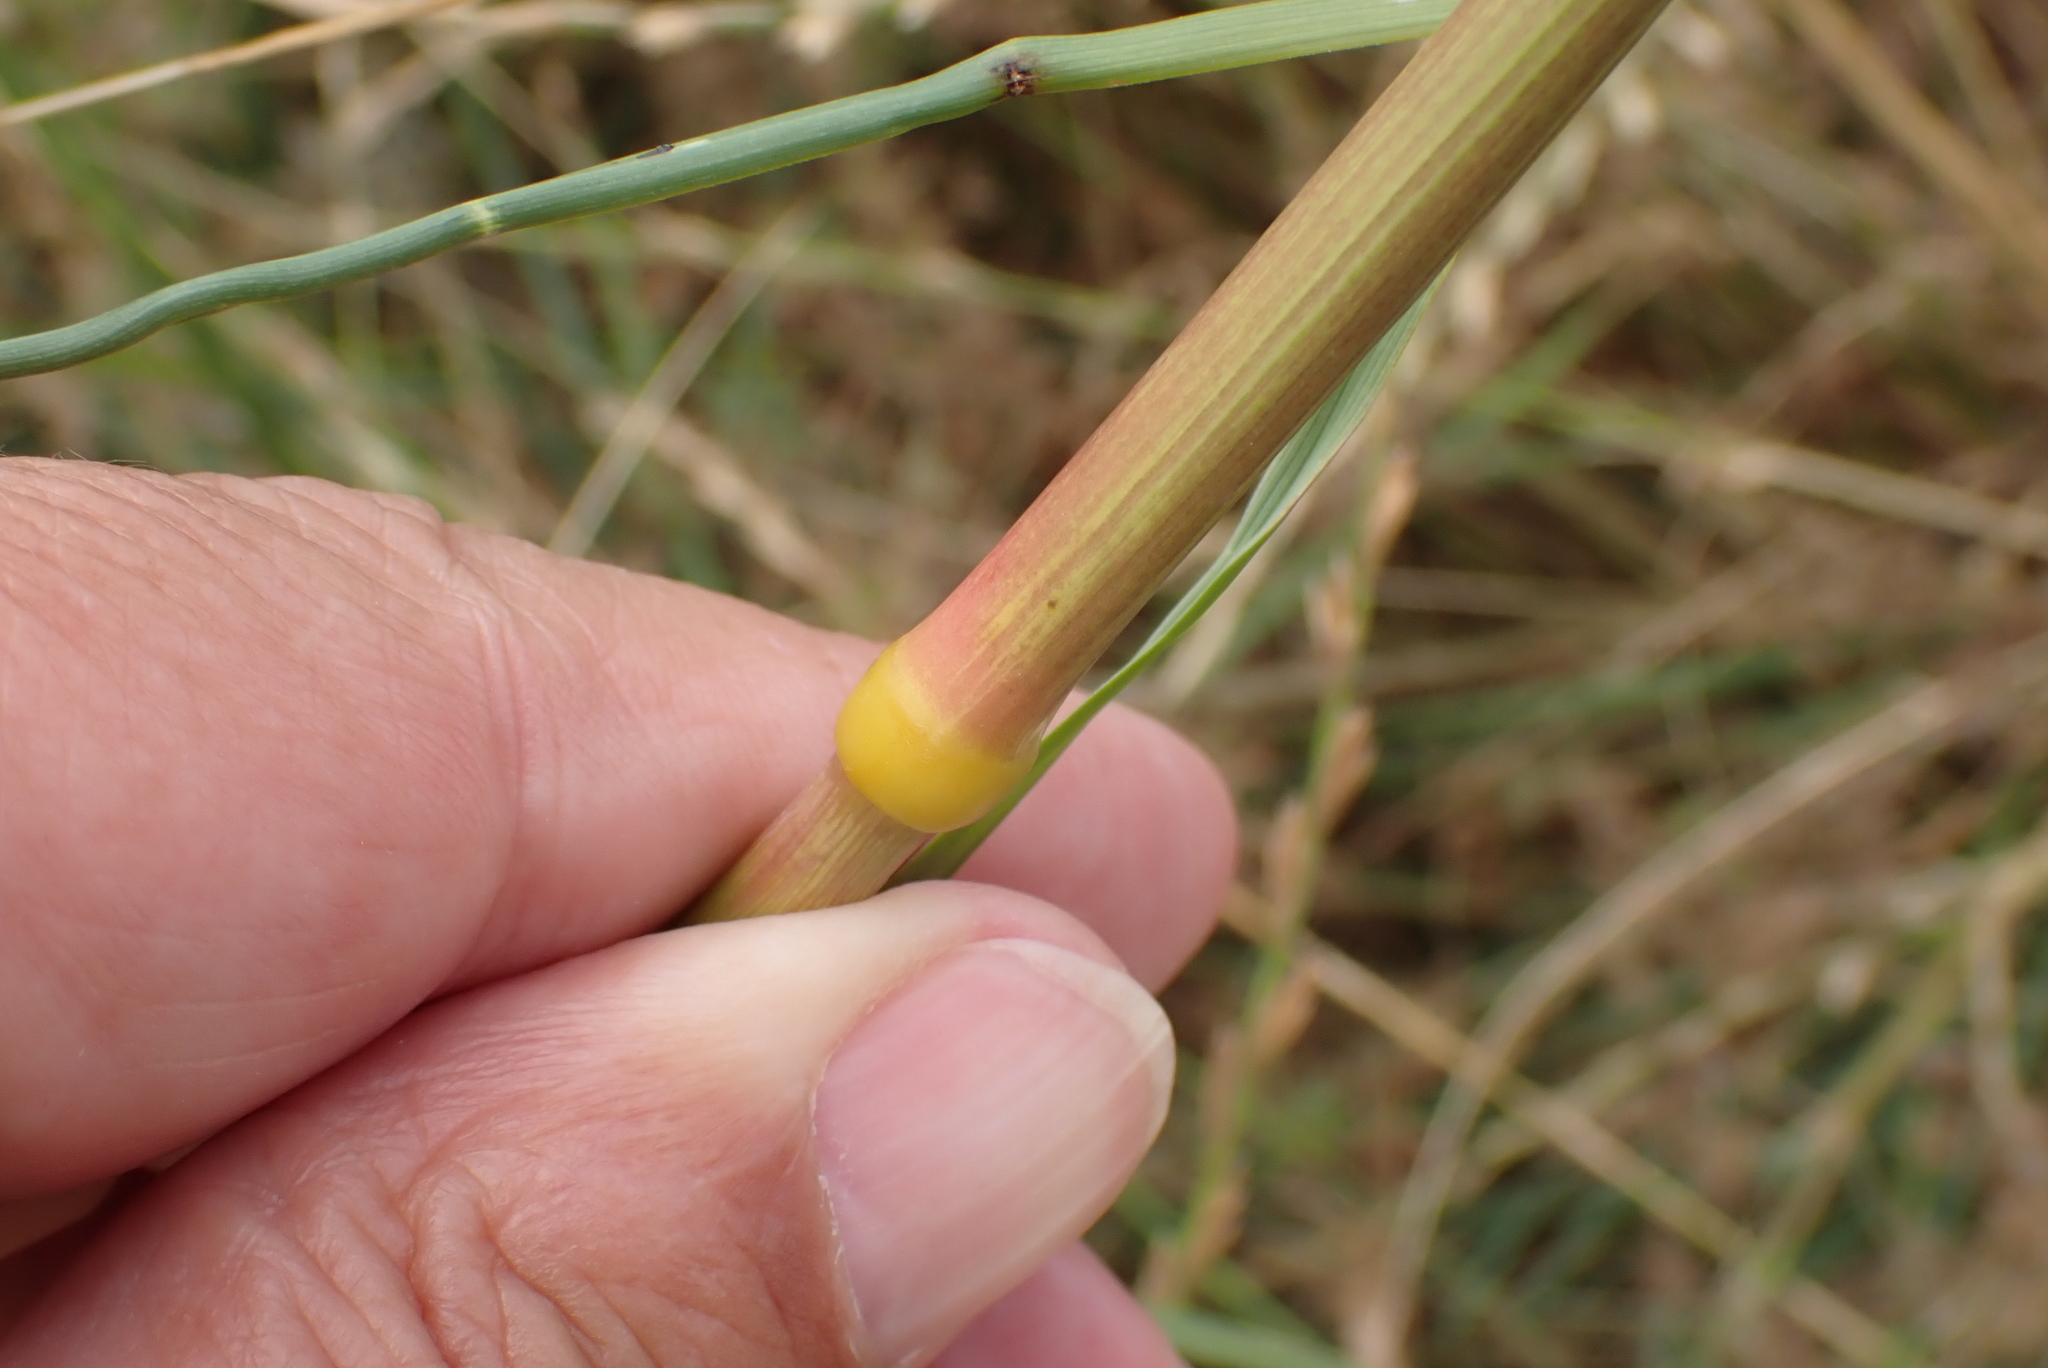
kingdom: Plantae
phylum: Tracheophyta
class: Liliopsida
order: Poales
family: Poaceae
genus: Celtica
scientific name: Celtica gigantea
